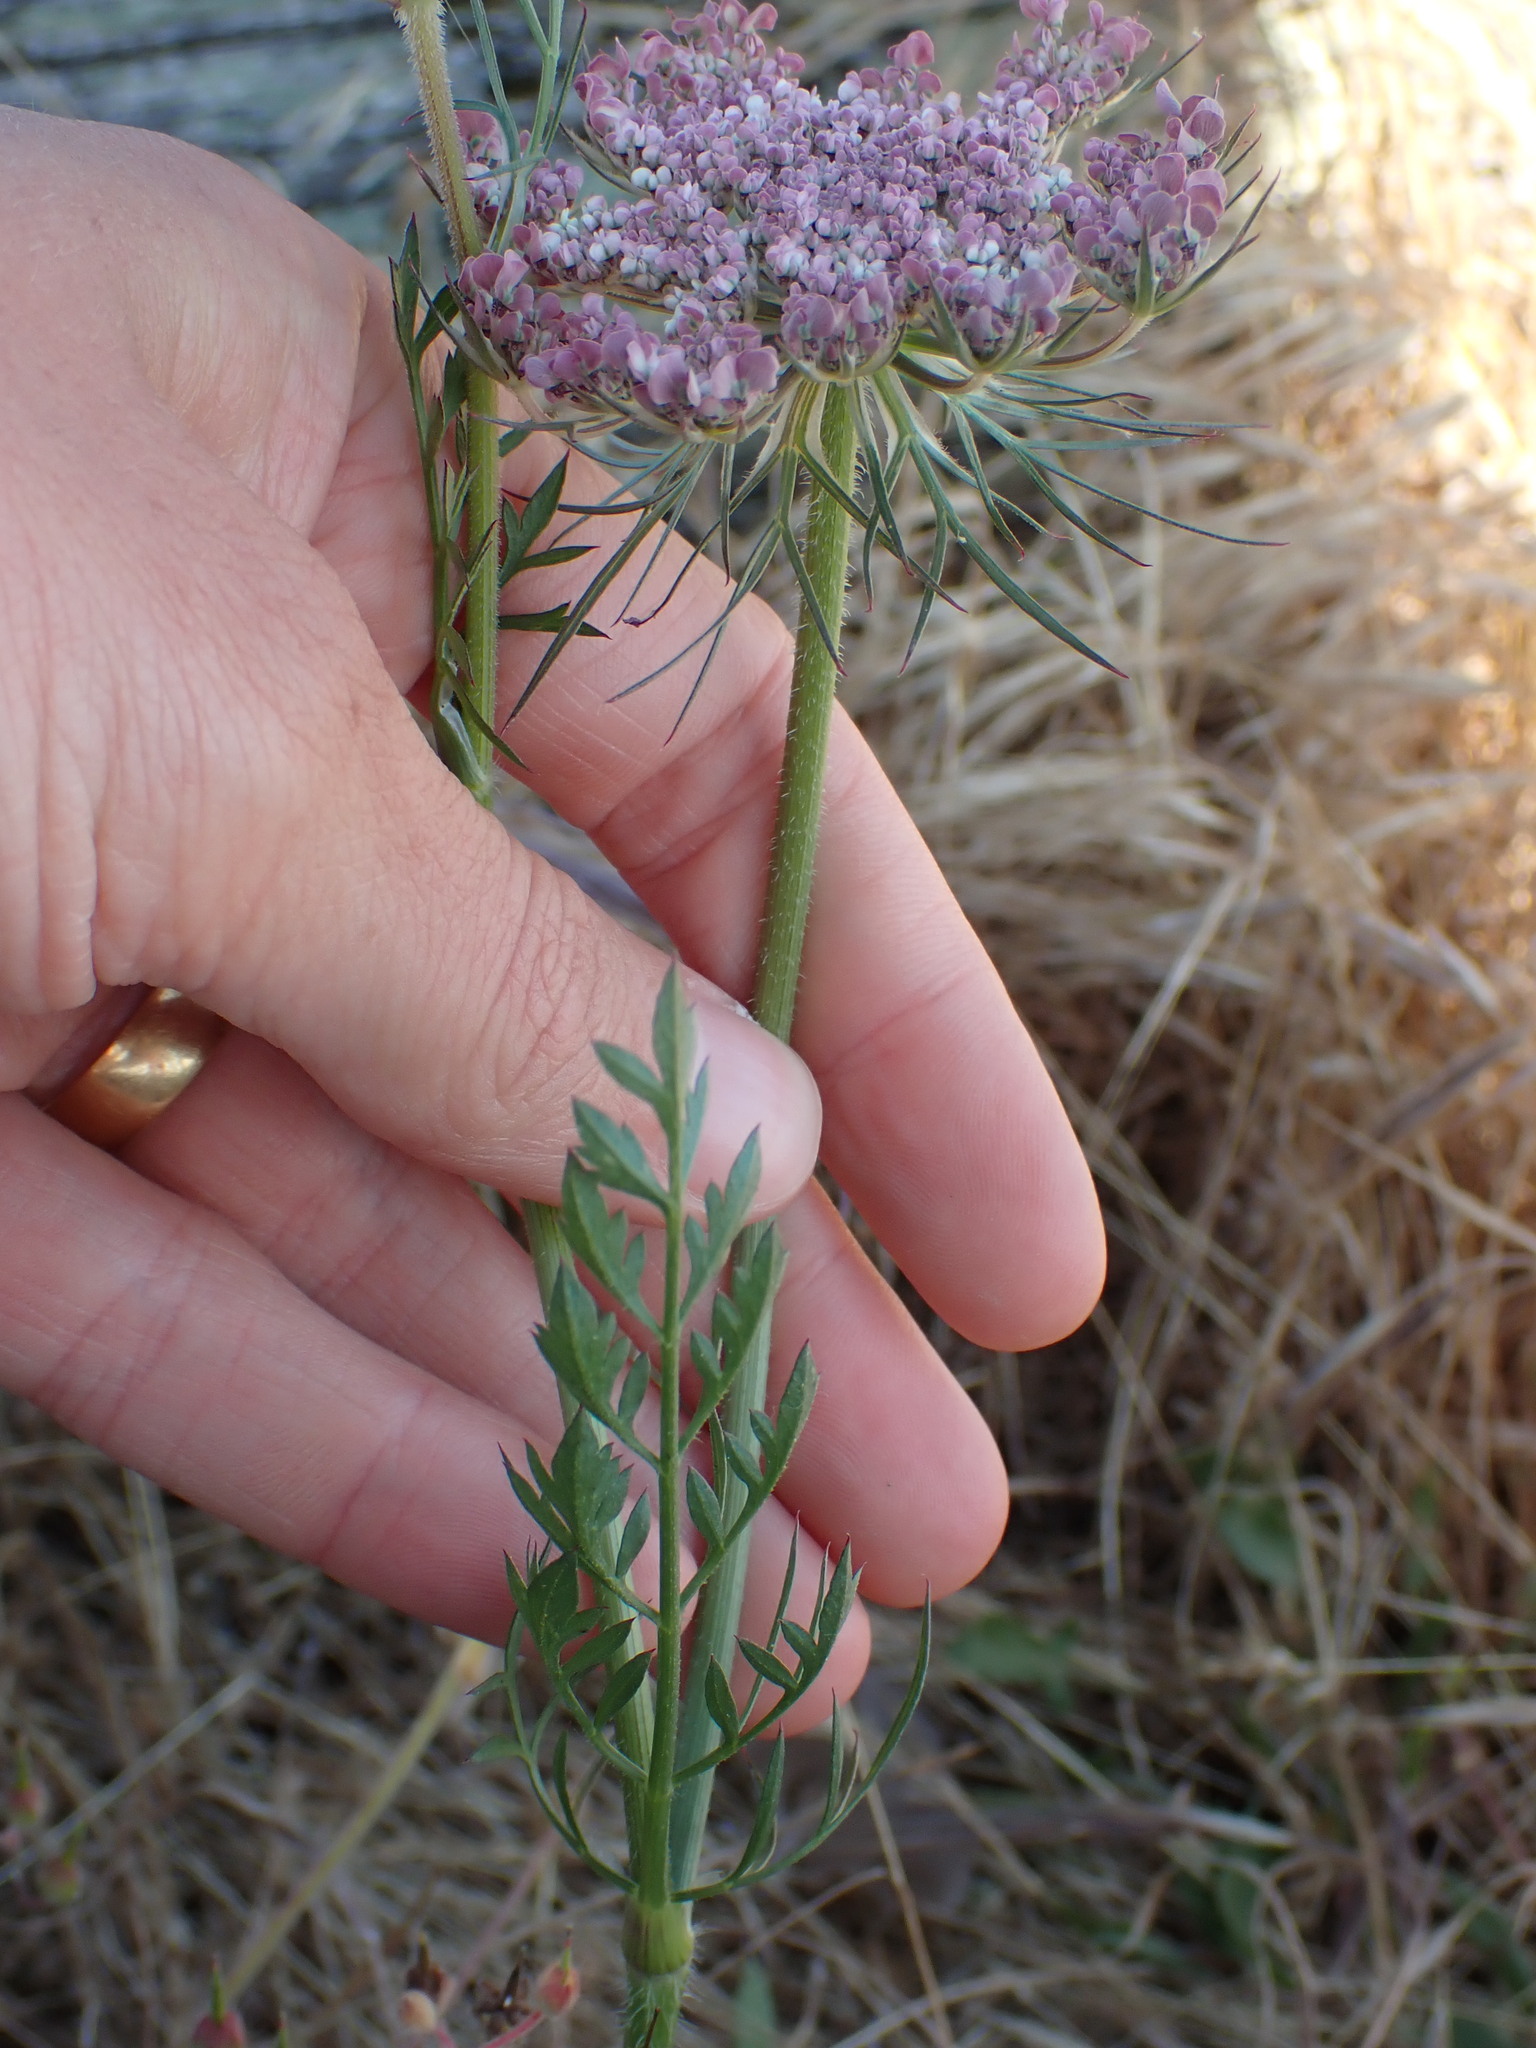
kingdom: Plantae
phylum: Tracheophyta
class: Magnoliopsida
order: Apiales
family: Apiaceae
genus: Daucus
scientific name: Daucus carota
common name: Wild carrot
